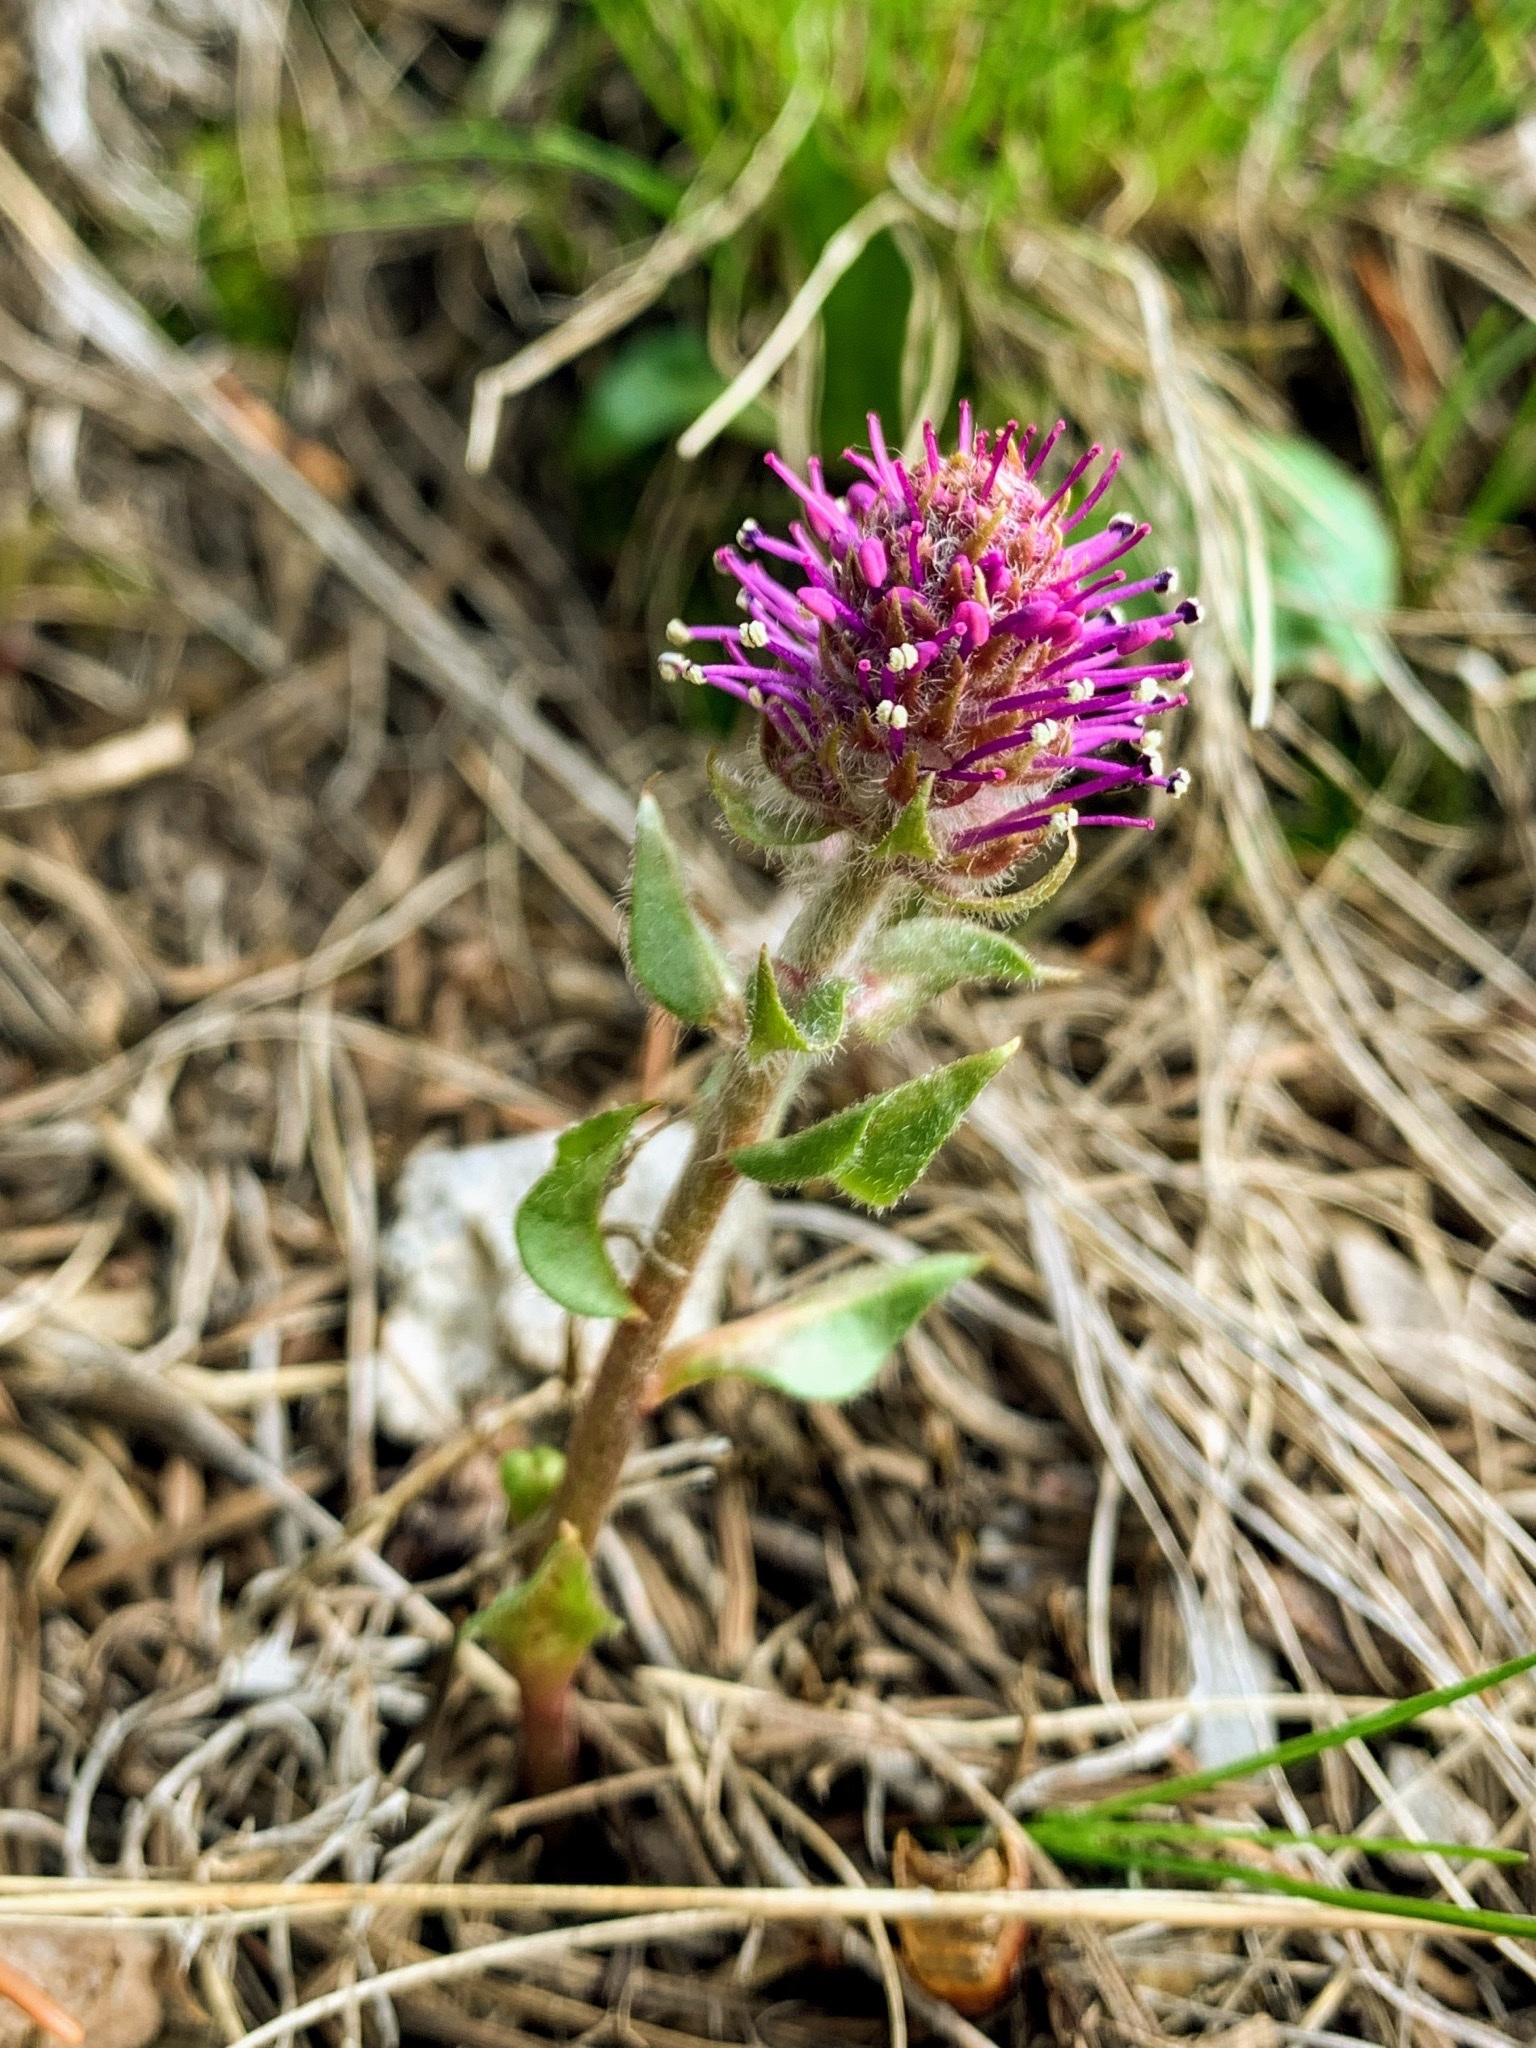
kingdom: Plantae
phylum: Tracheophyta
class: Magnoliopsida
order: Lamiales
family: Plantaginaceae
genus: Synthyris
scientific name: Synthyris wyomingensis
